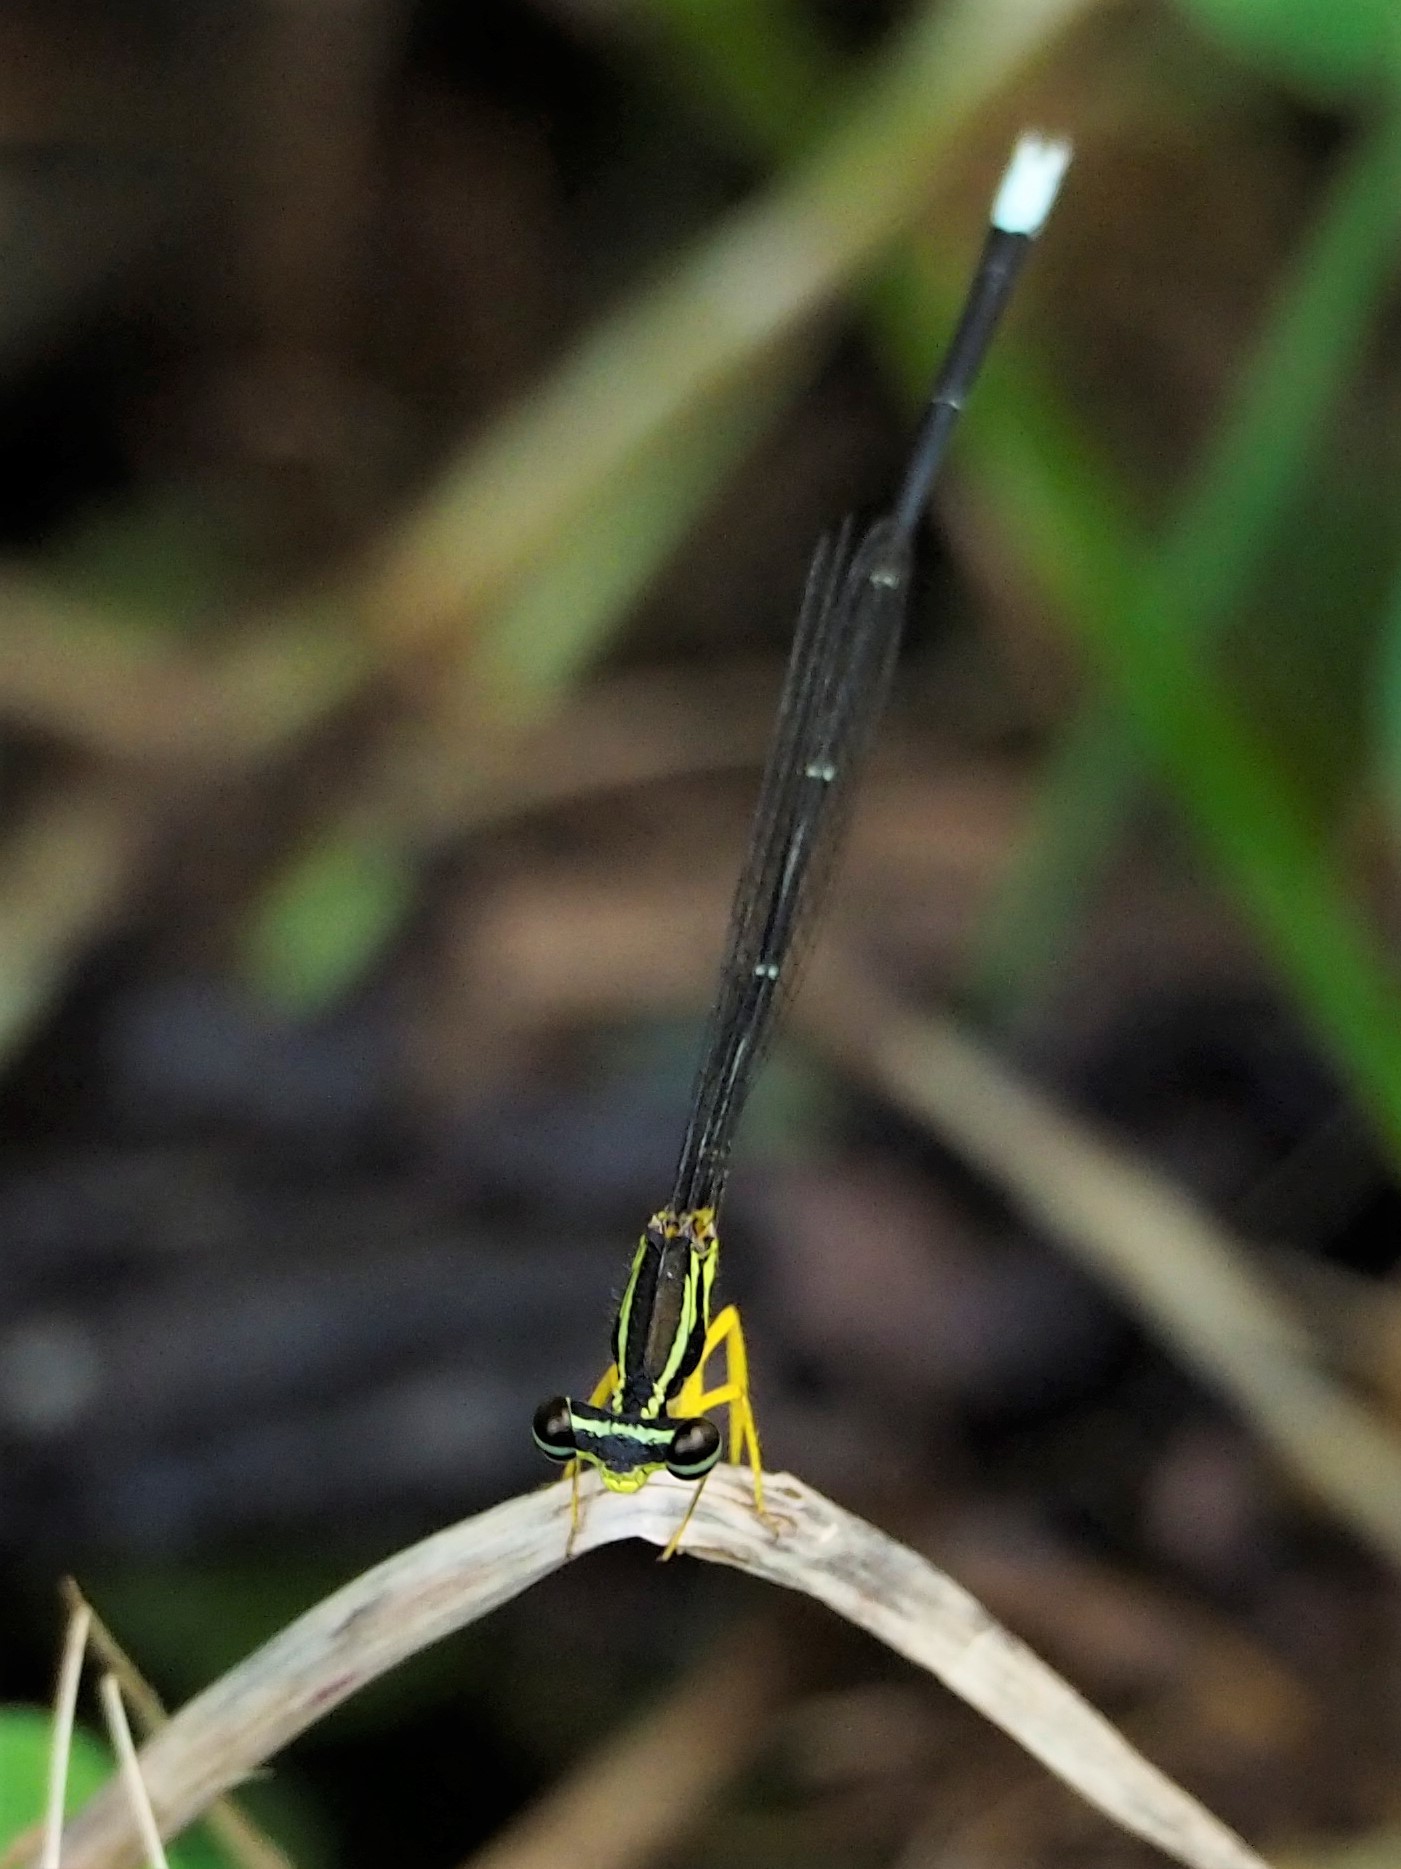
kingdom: Animalia
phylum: Arthropoda
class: Insecta
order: Odonata
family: Platycnemididae
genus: Copera
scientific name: Copera marginipes
